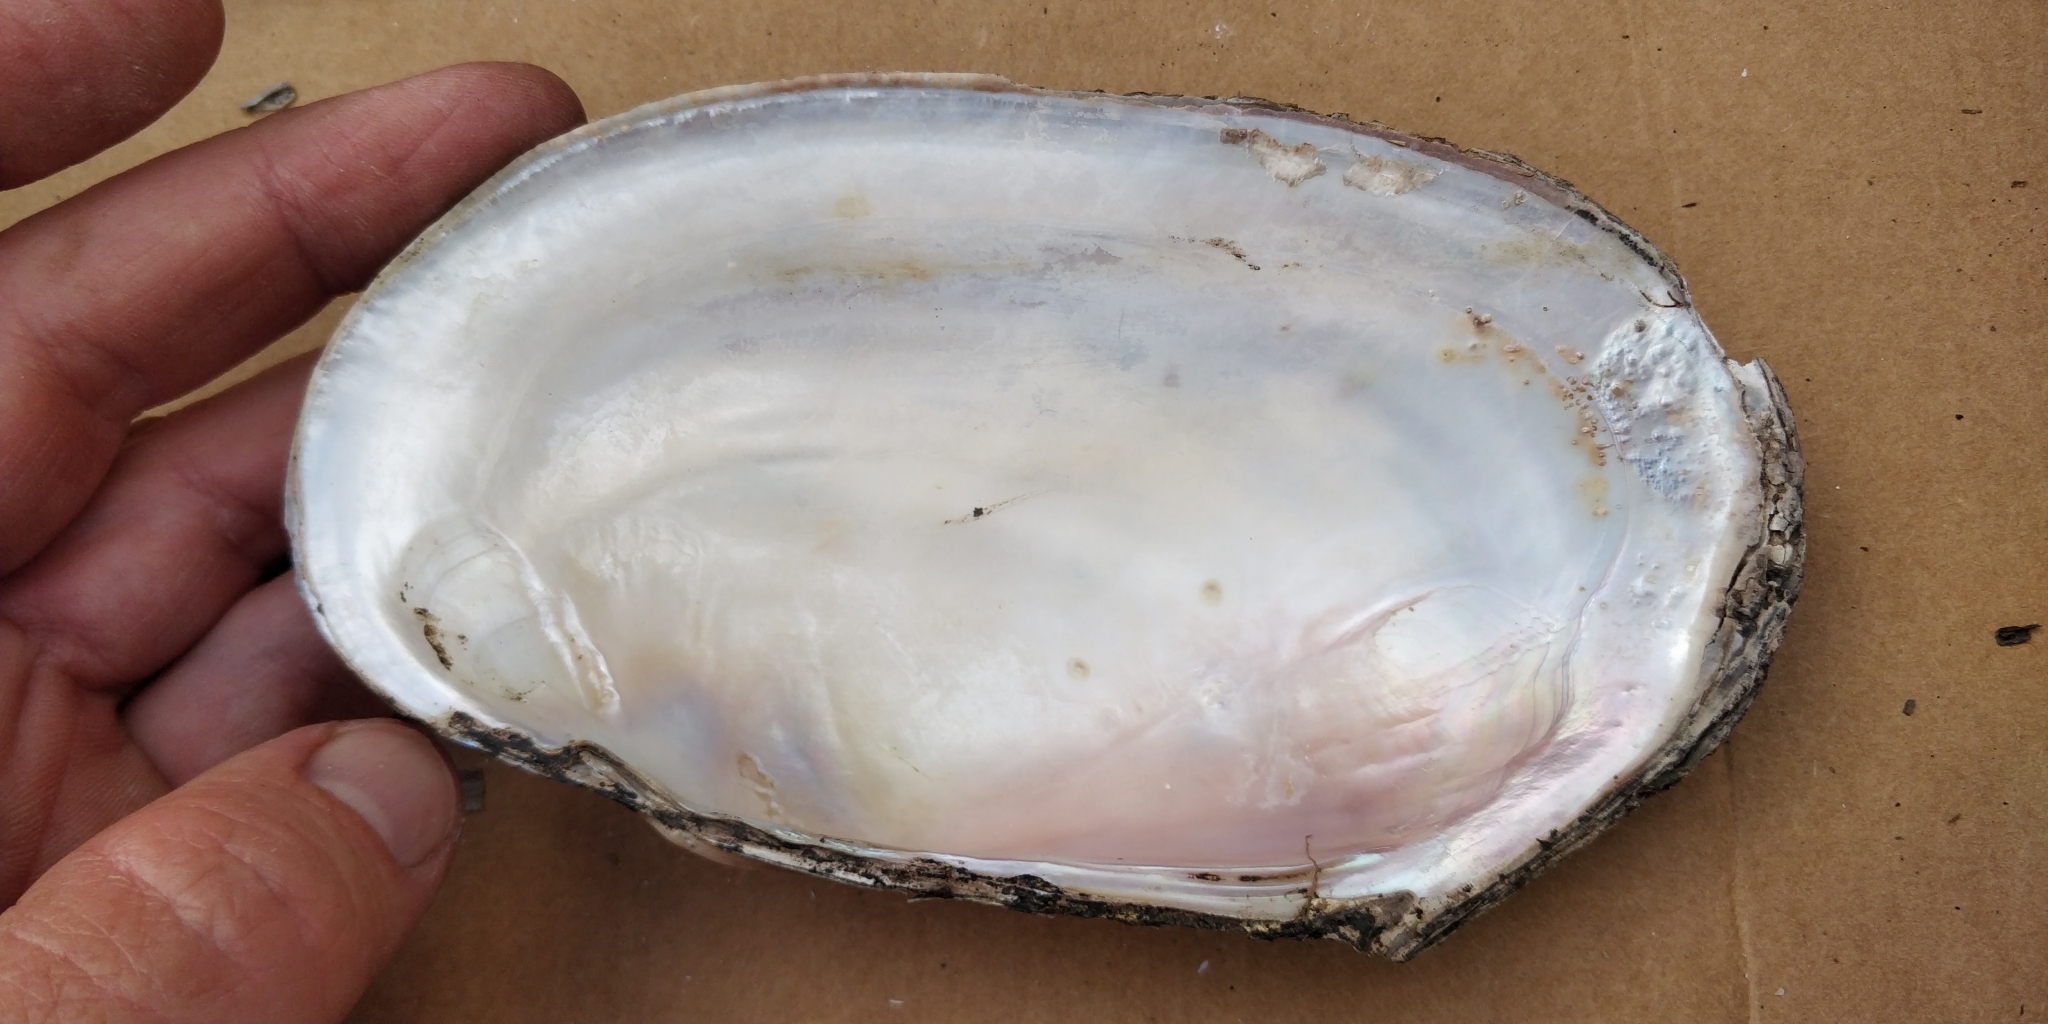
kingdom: Animalia
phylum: Mollusca
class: Bivalvia
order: Unionida
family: Unionidae
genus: Potamilus
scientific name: Potamilus fragilis
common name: Fragile papershell
